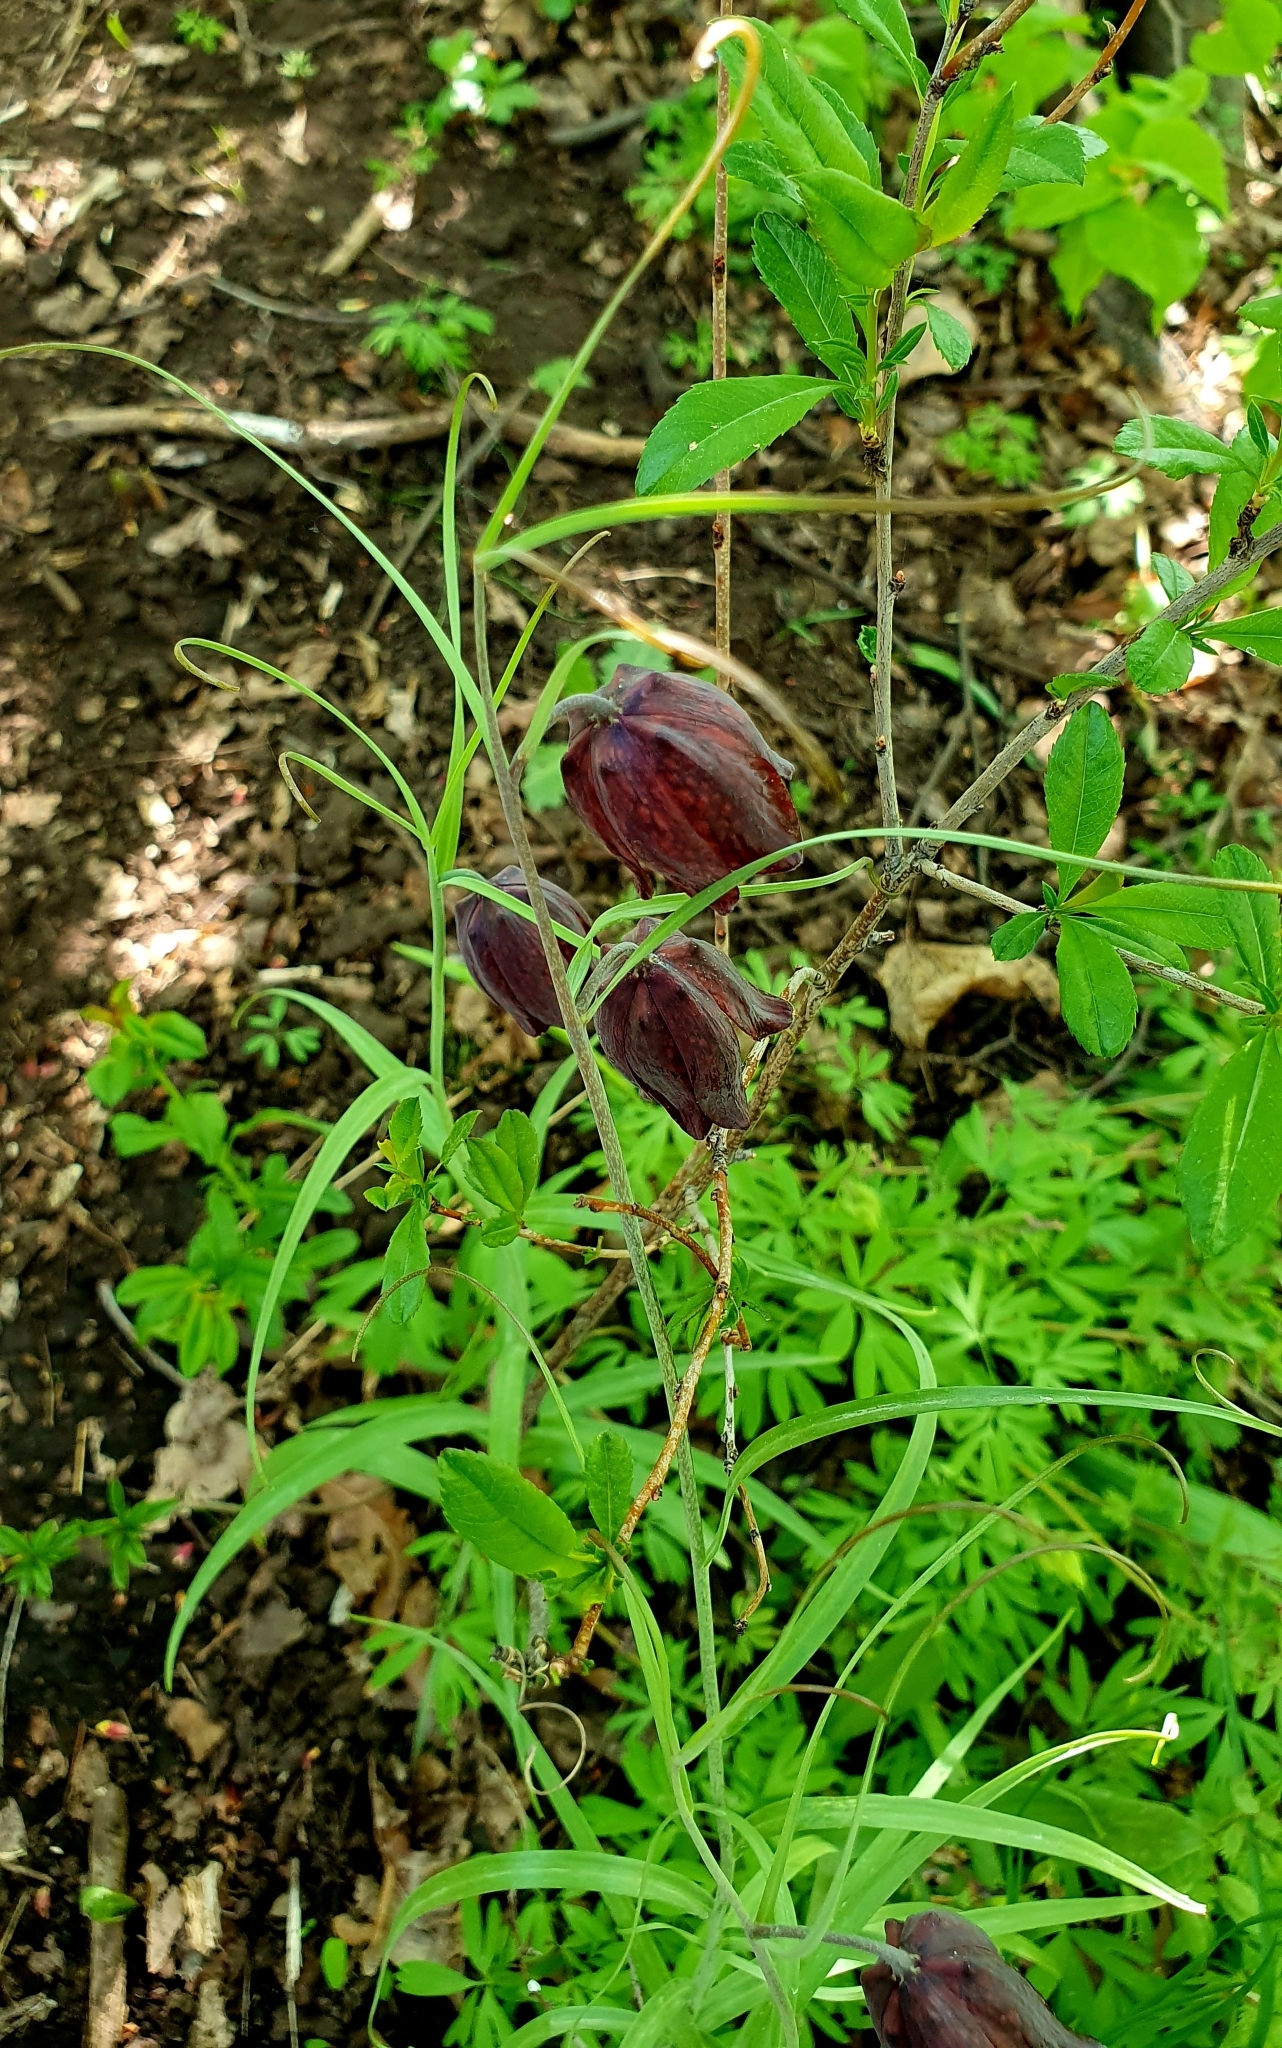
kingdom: Plantae
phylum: Tracheophyta
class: Liliopsida
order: Liliales
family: Liliaceae
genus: Fritillaria
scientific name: Fritillaria ruthenica
